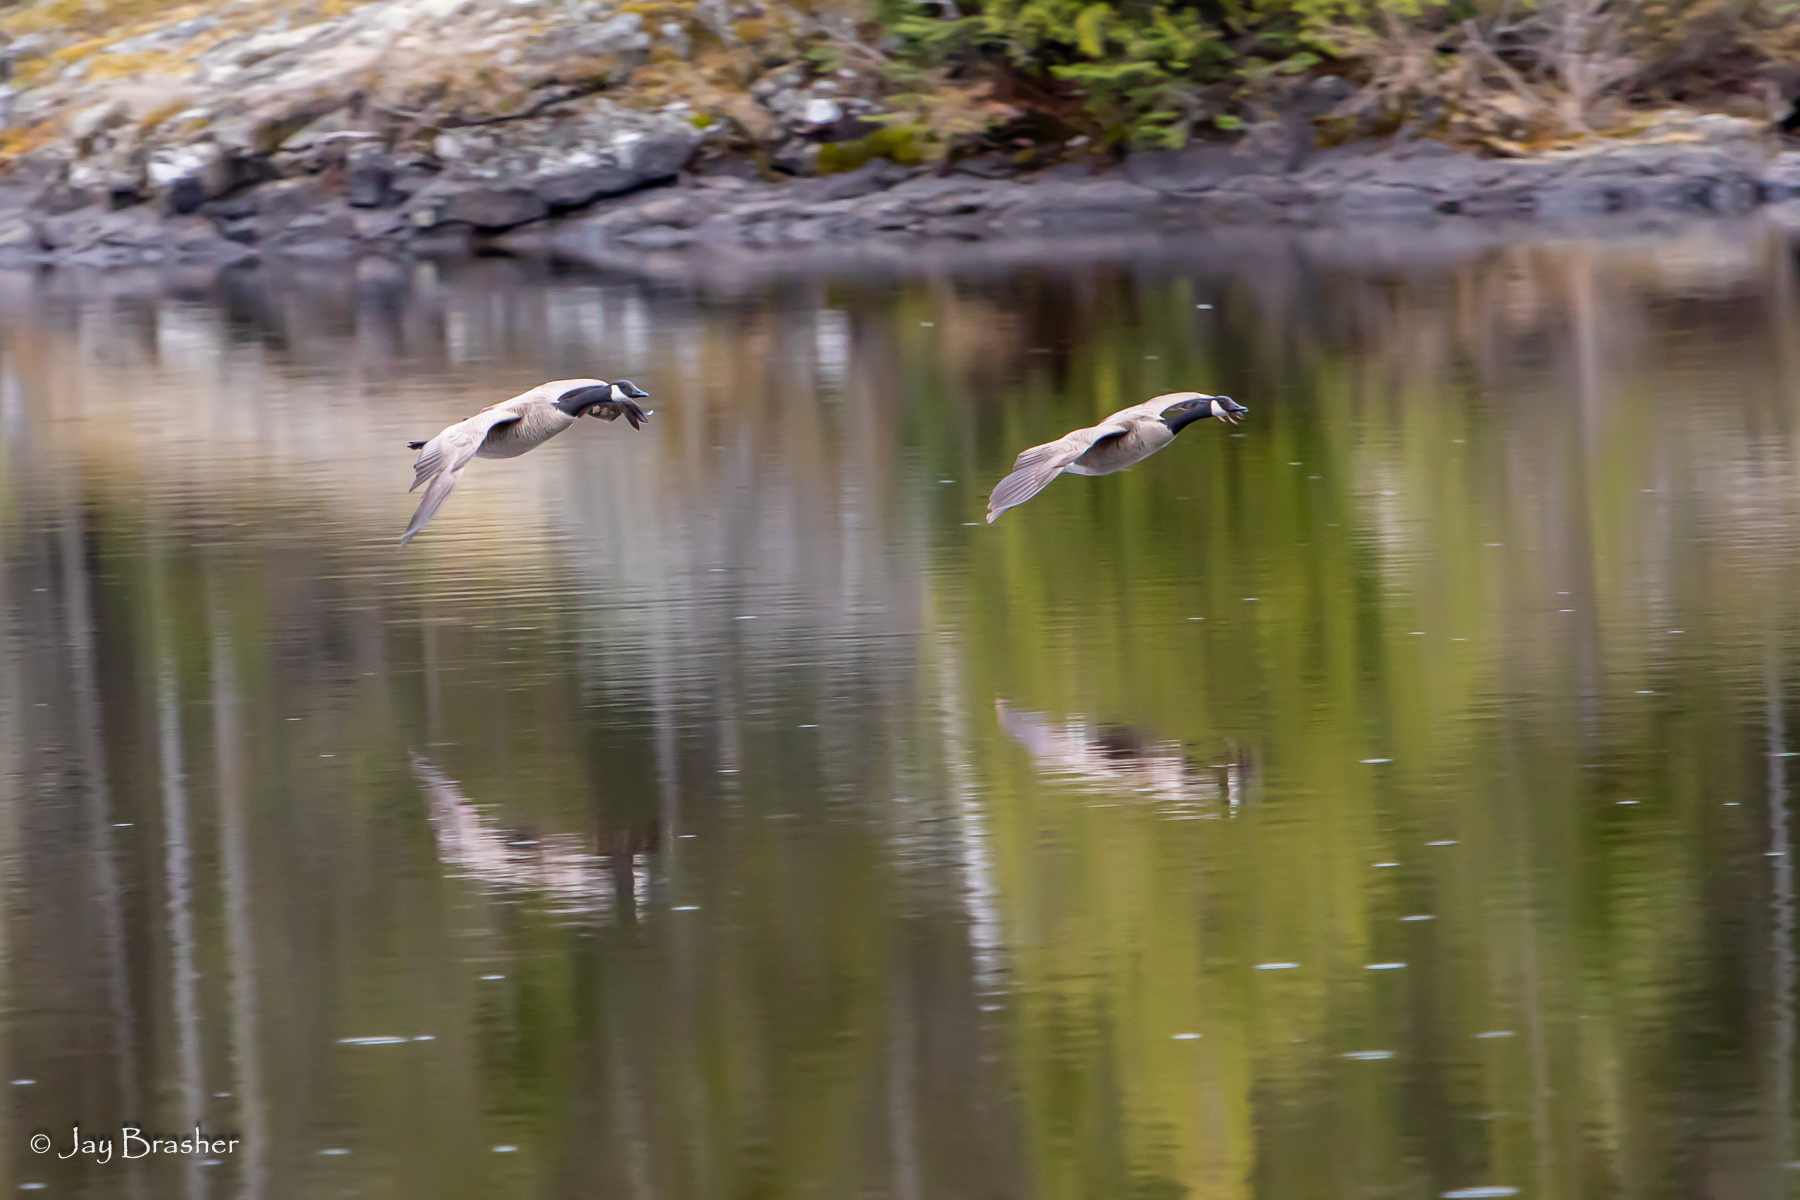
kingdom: Animalia
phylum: Chordata
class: Aves
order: Anseriformes
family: Anatidae
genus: Branta
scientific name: Branta canadensis
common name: Canada goose
